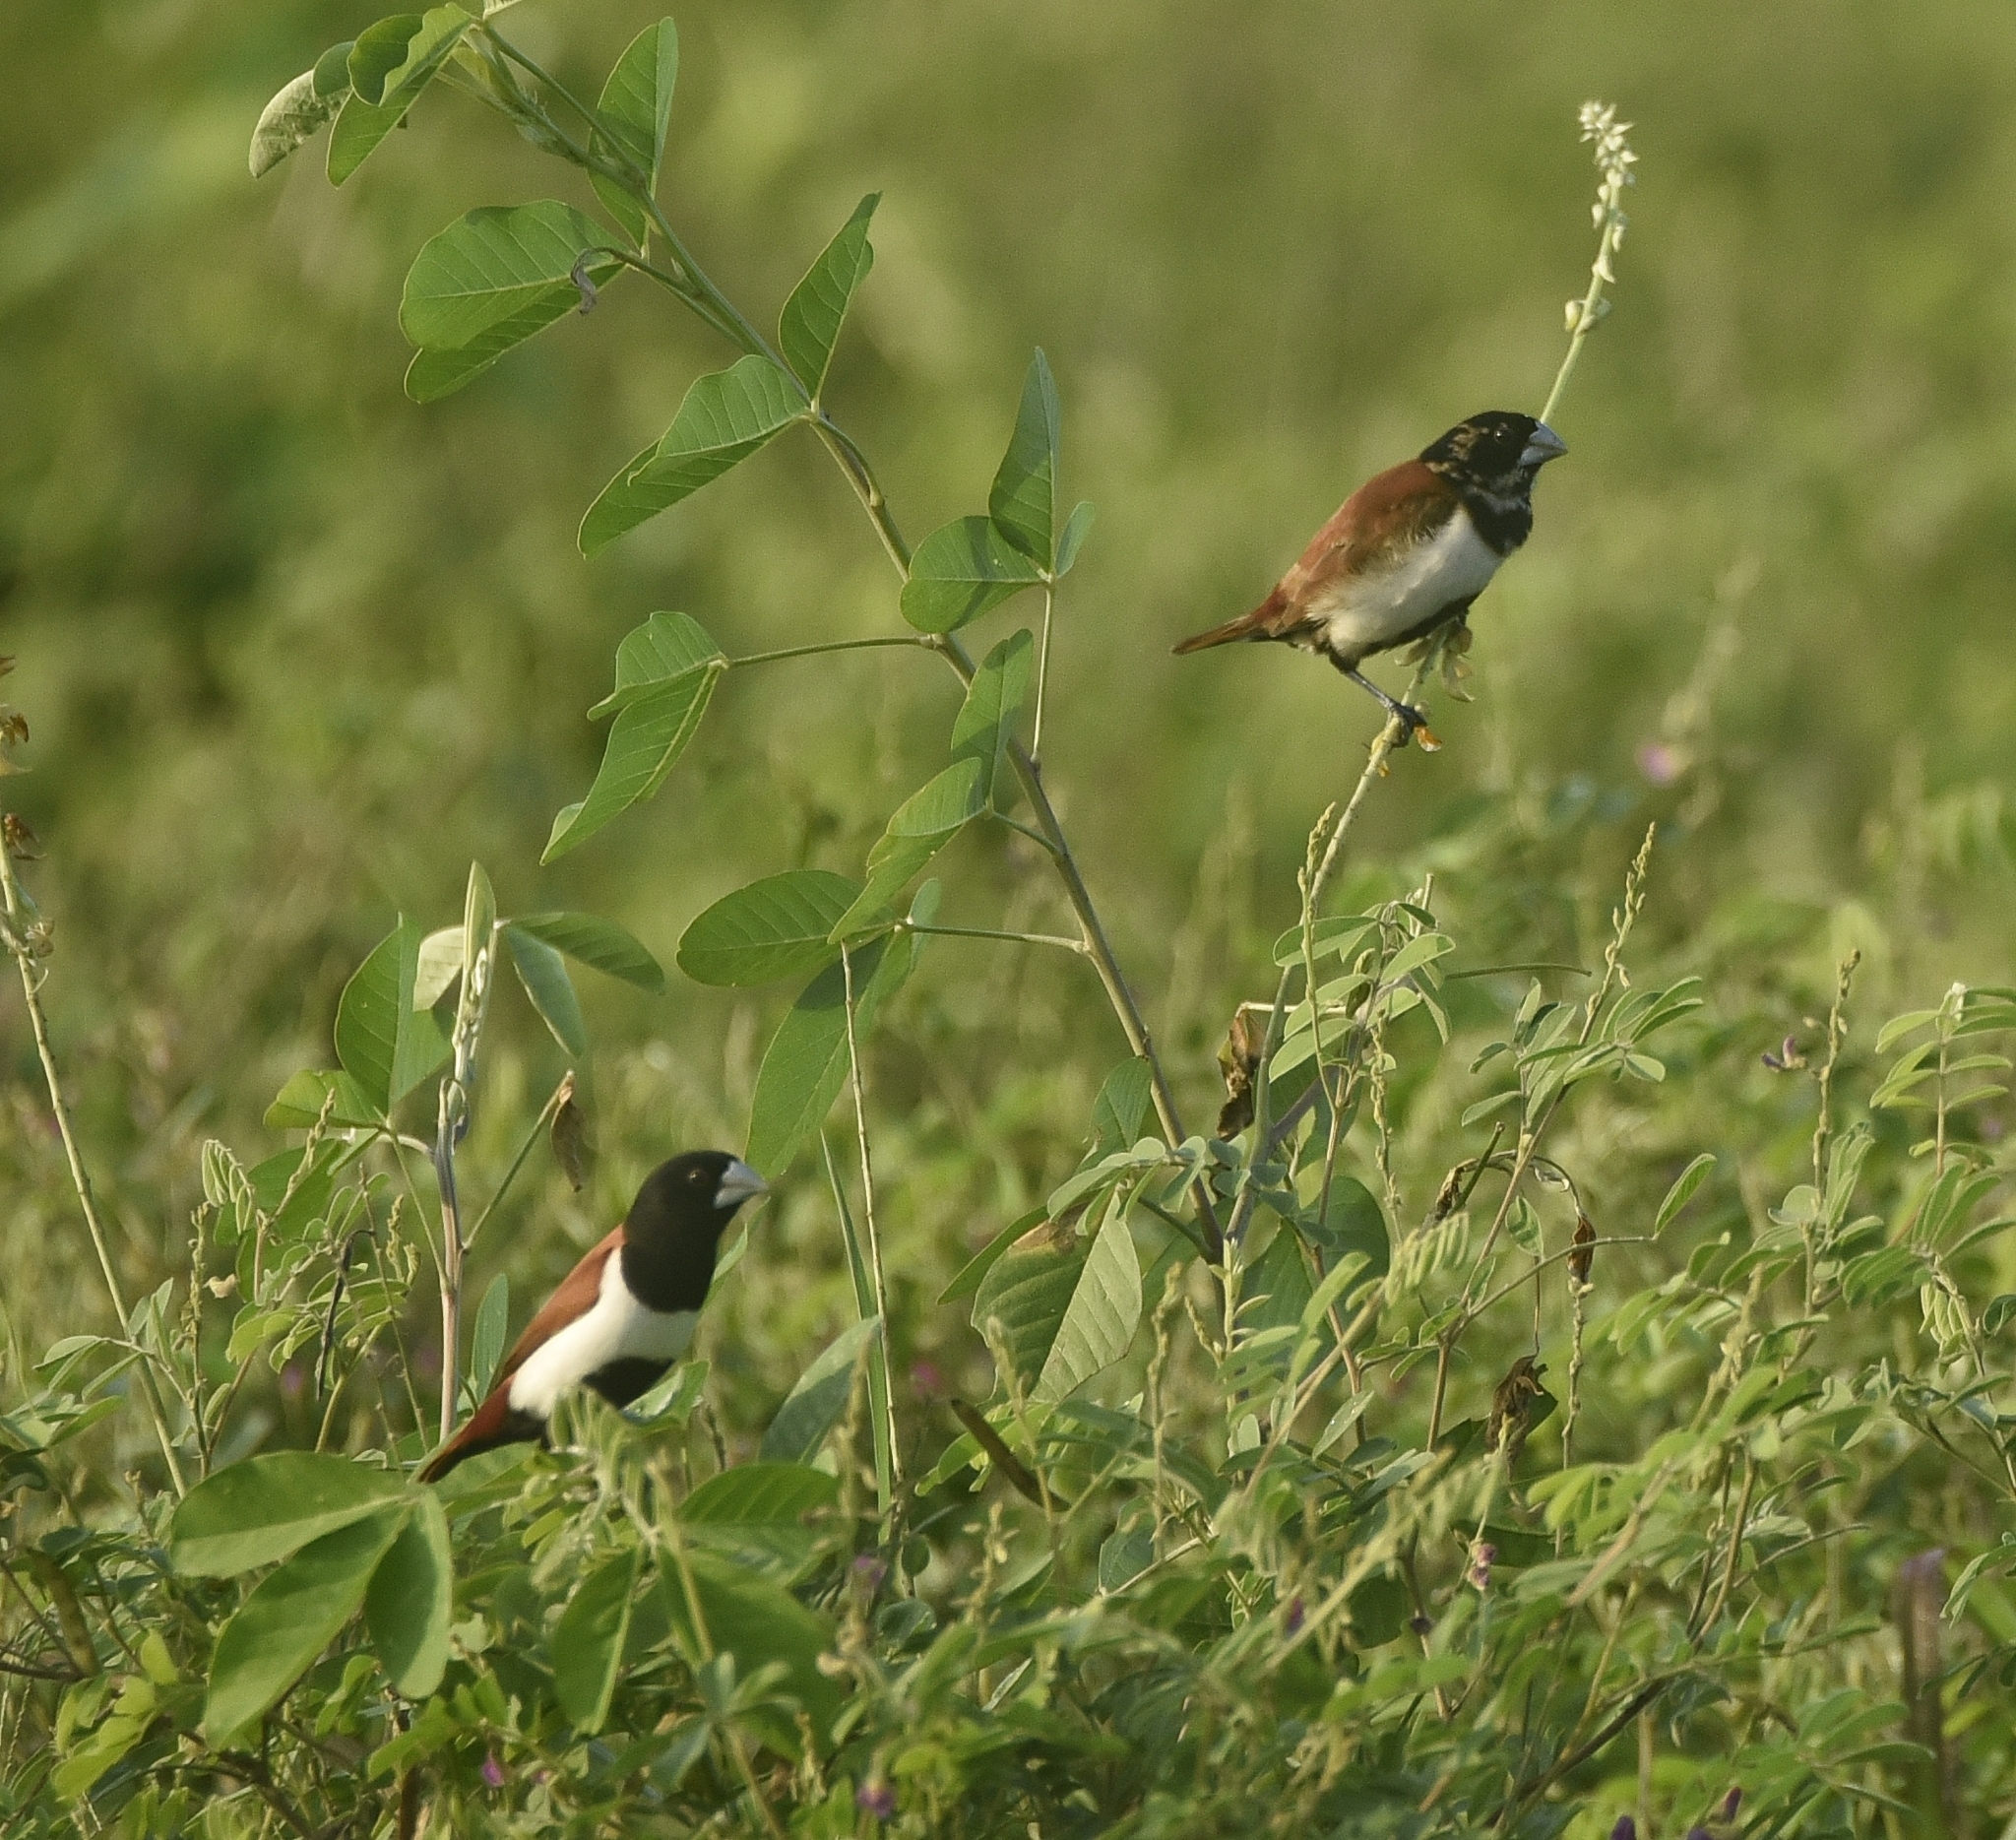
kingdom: Animalia
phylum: Chordata
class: Aves
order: Passeriformes
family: Estrildidae
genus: Lonchura
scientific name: Lonchura malacca
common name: Tricolored munia
